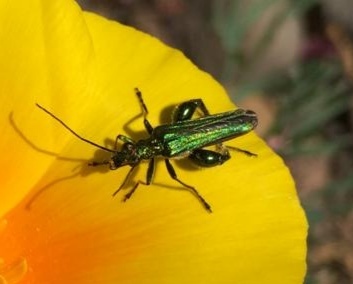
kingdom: Animalia
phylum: Arthropoda
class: Insecta
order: Coleoptera
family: Oedemeridae
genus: Oedemera
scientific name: Oedemera nobilis
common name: Swollen-thighed beetle
